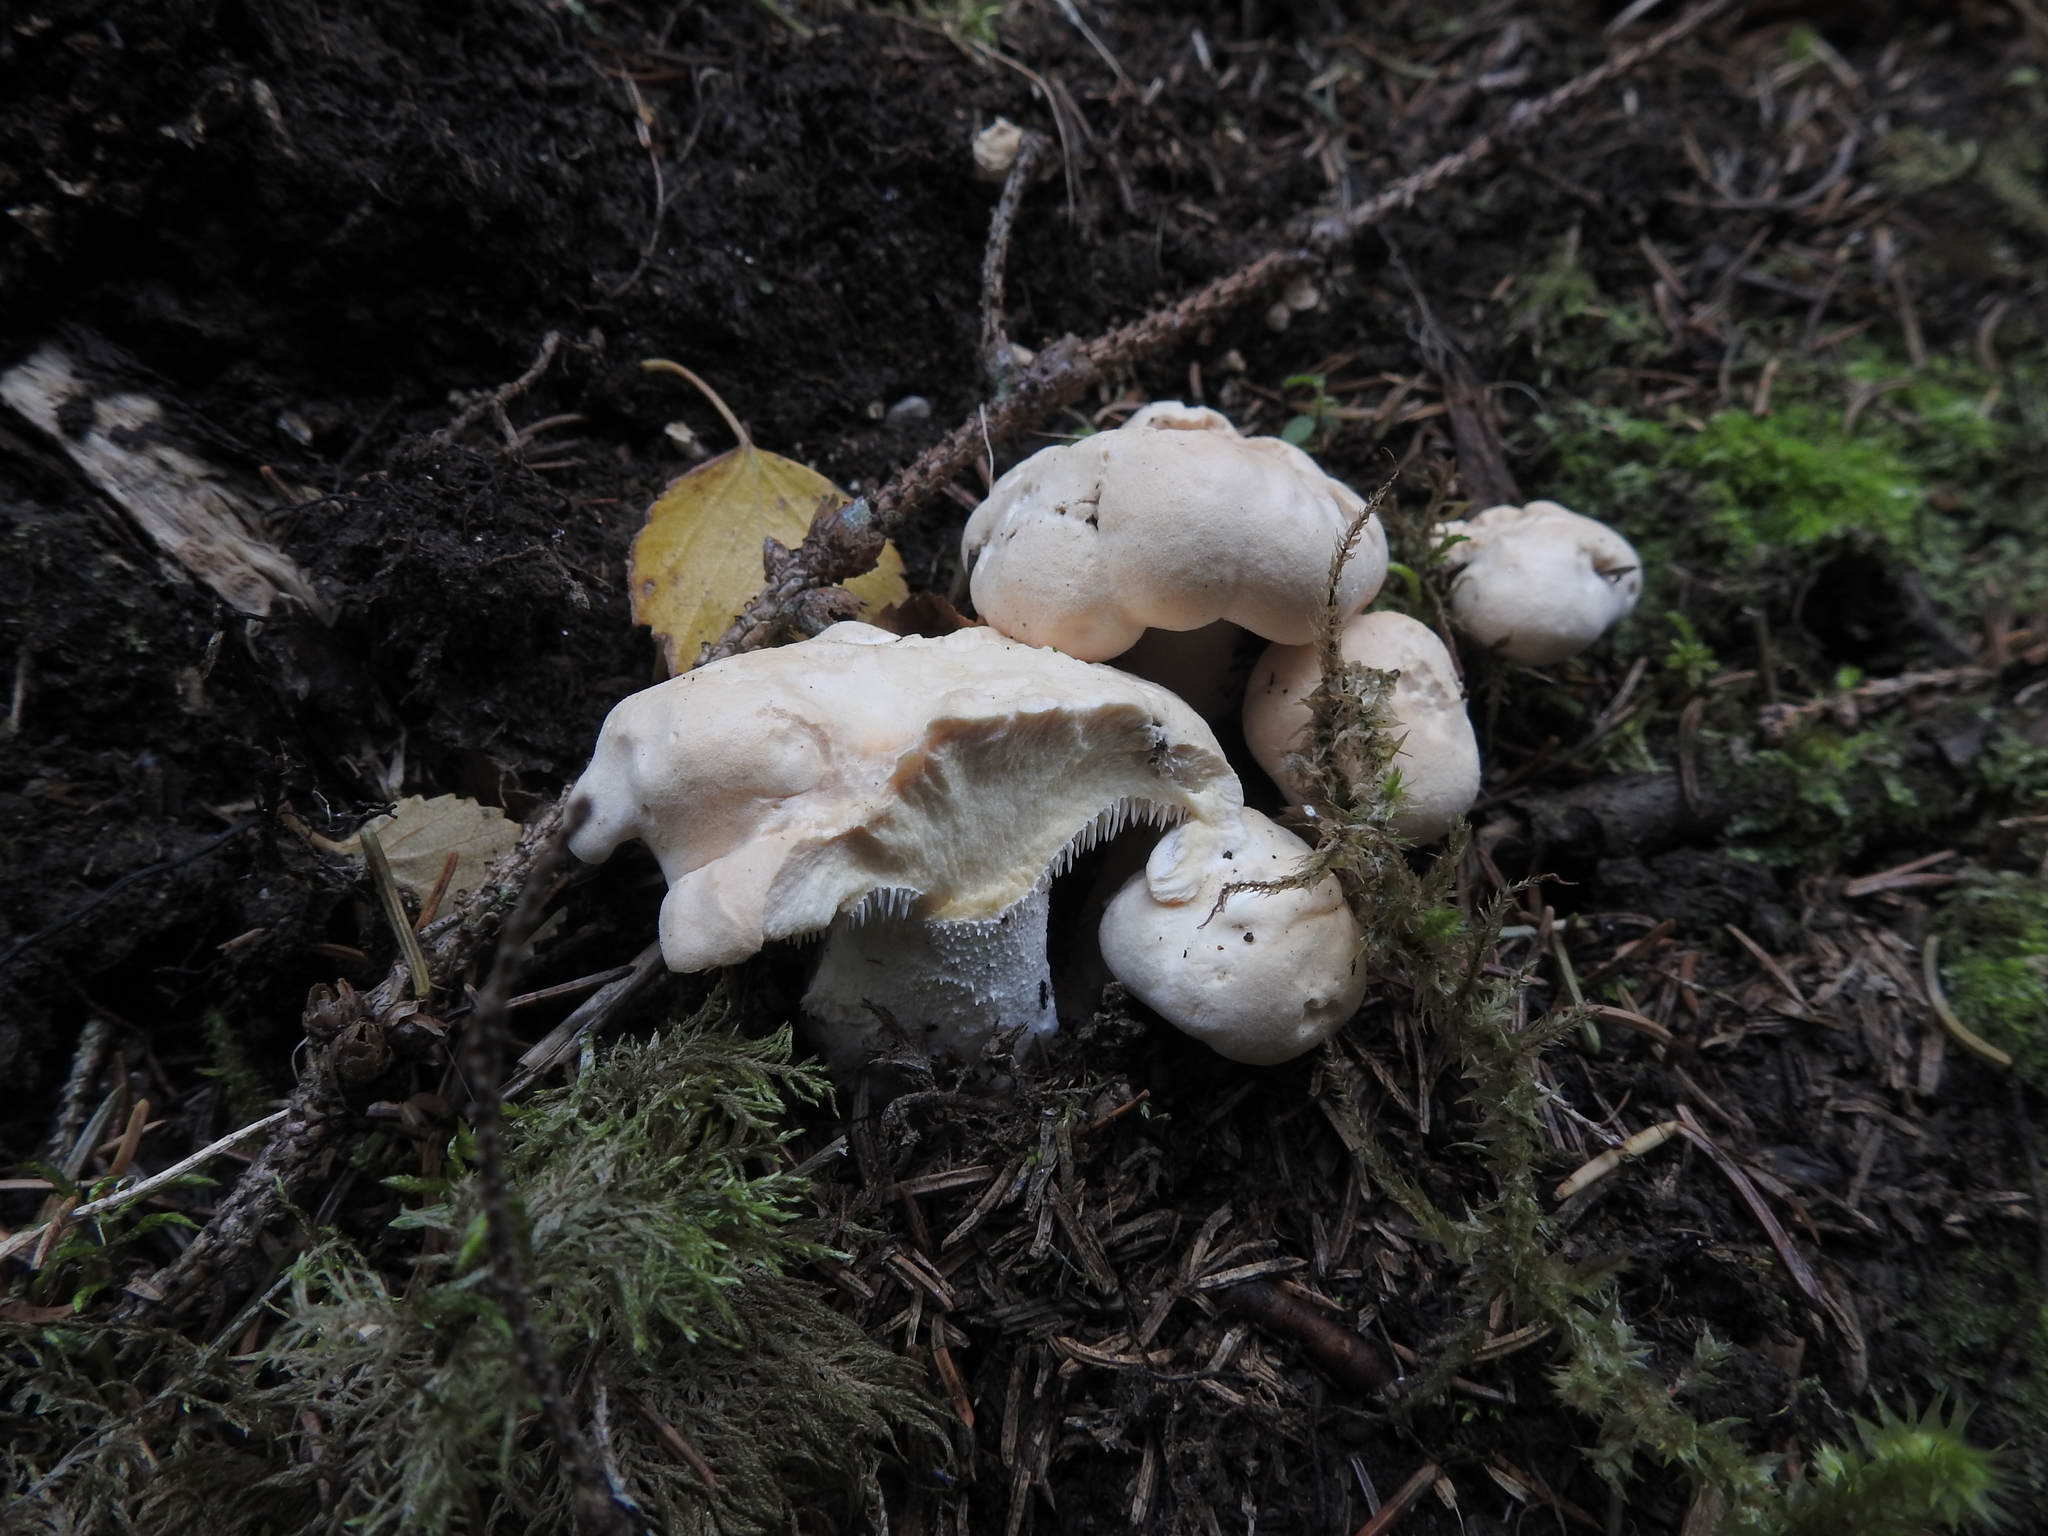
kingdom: Fungi
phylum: Basidiomycota
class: Agaricomycetes
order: Cantharellales
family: Hydnaceae
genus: Hydnum
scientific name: Hydnum repandum
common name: Wood hedgehog
